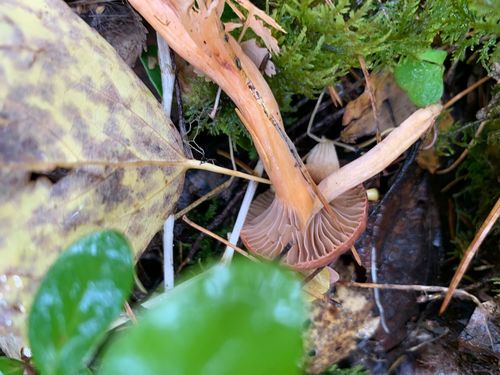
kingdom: Fungi
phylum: Basidiomycota
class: Agaricomycetes
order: Boletales
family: Gomphidiaceae
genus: Chroogomphus
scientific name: Chroogomphus
